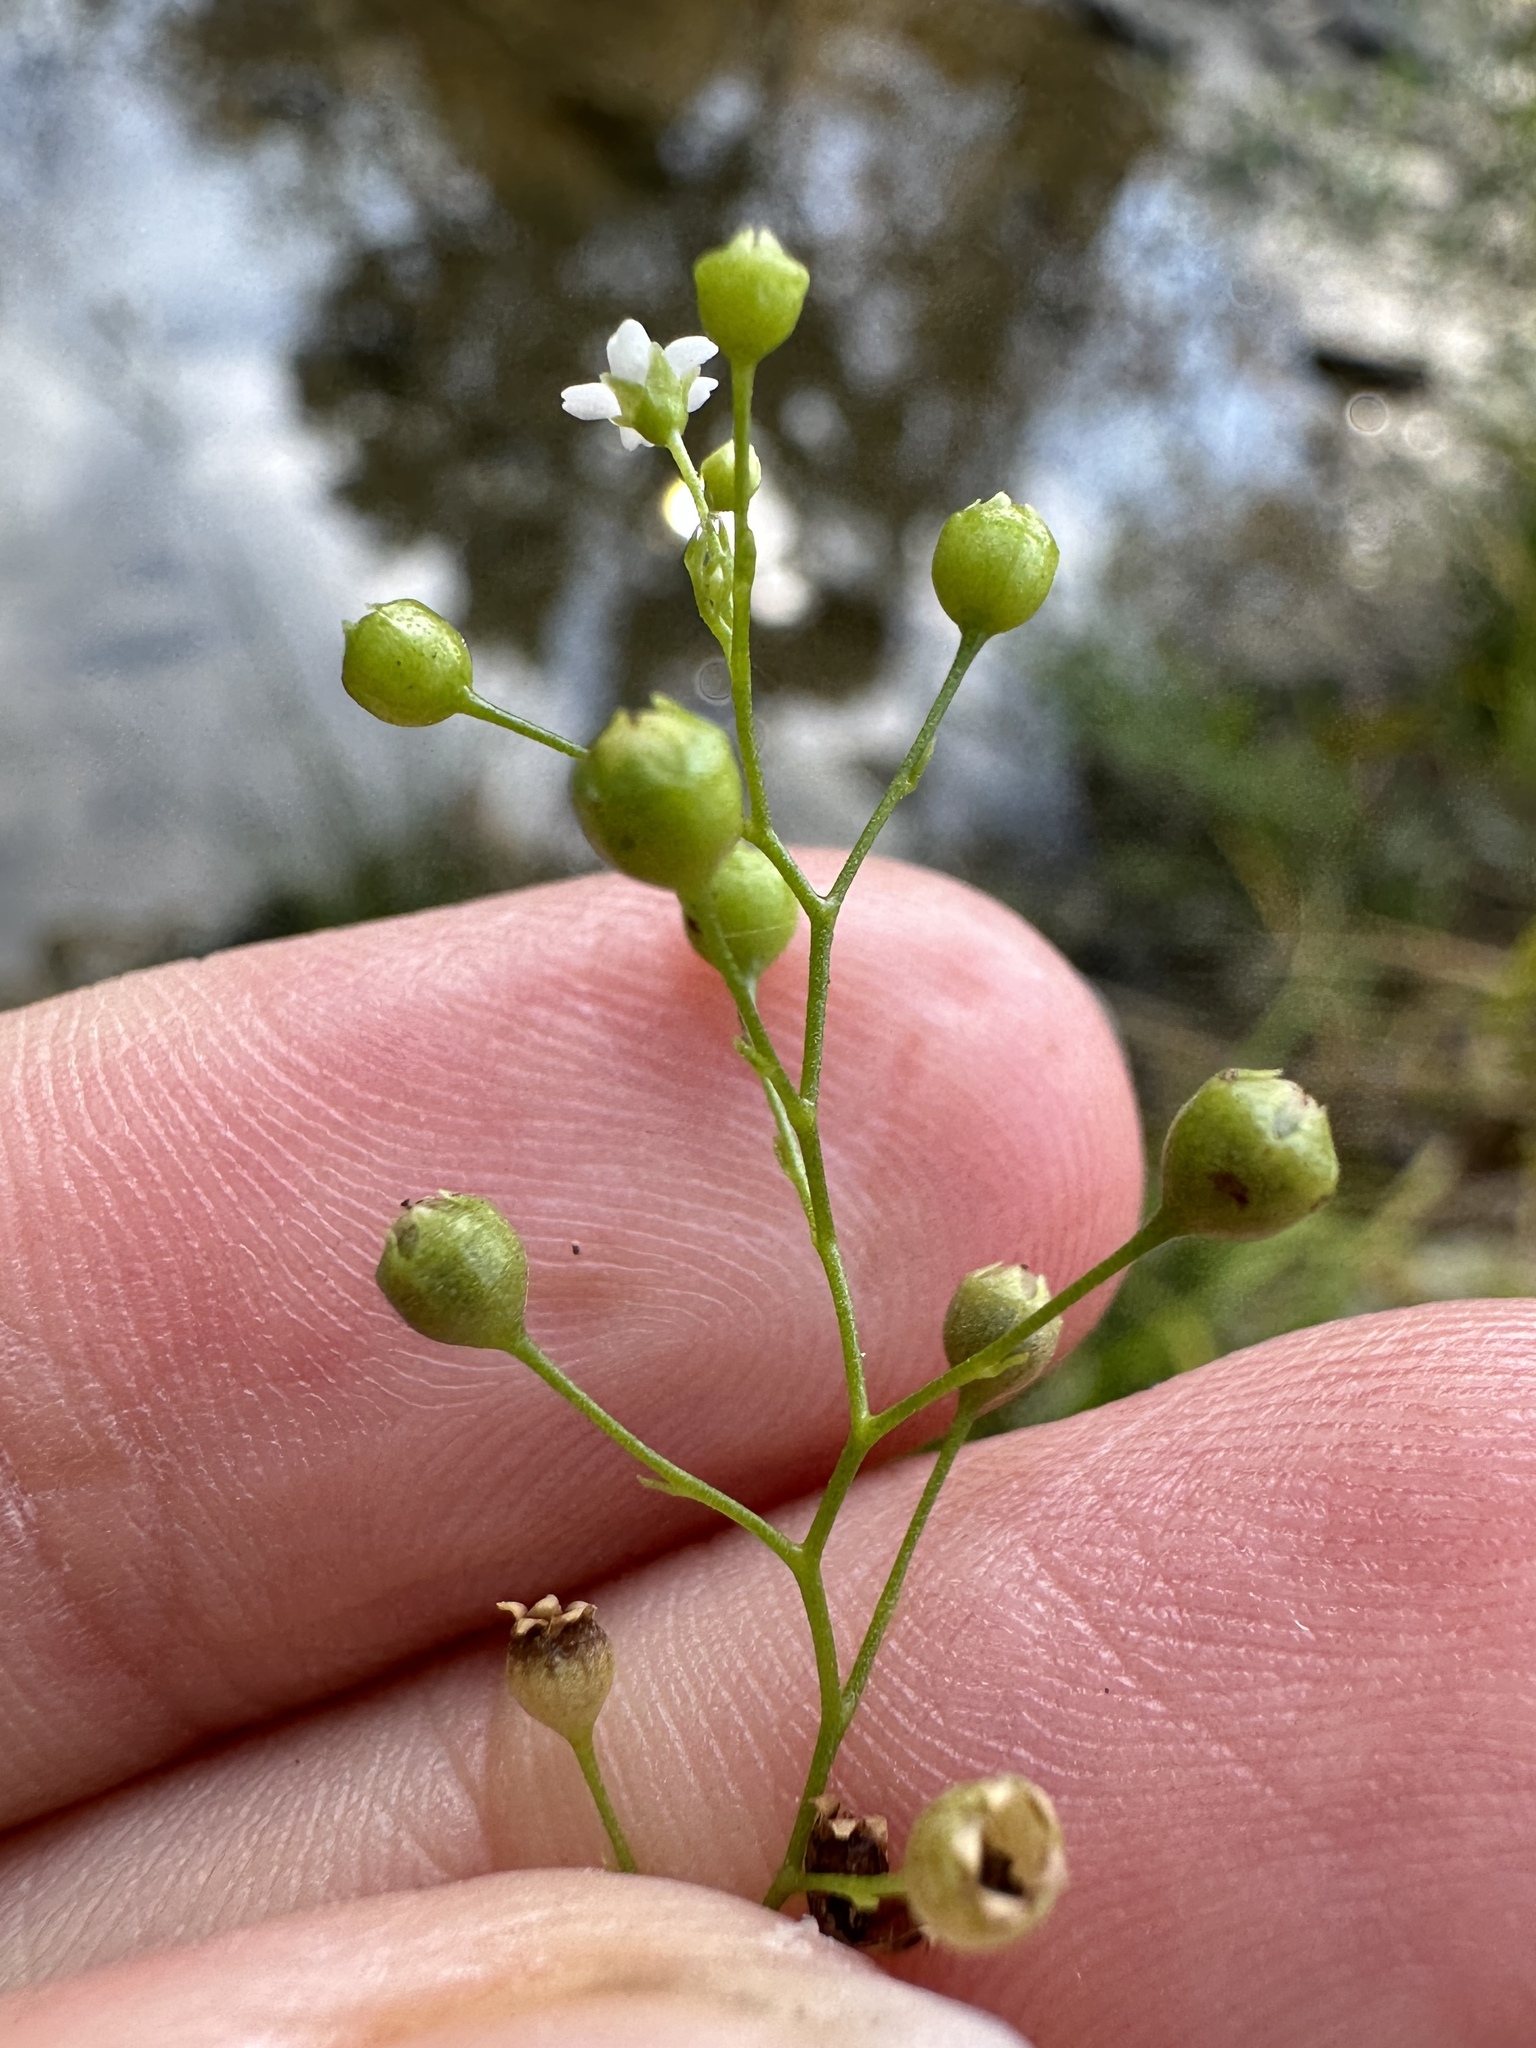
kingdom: Plantae
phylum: Tracheophyta
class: Magnoliopsida
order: Ericales
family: Primulaceae
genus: Samolus
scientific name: Samolus parviflorus
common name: False water pimpernel
